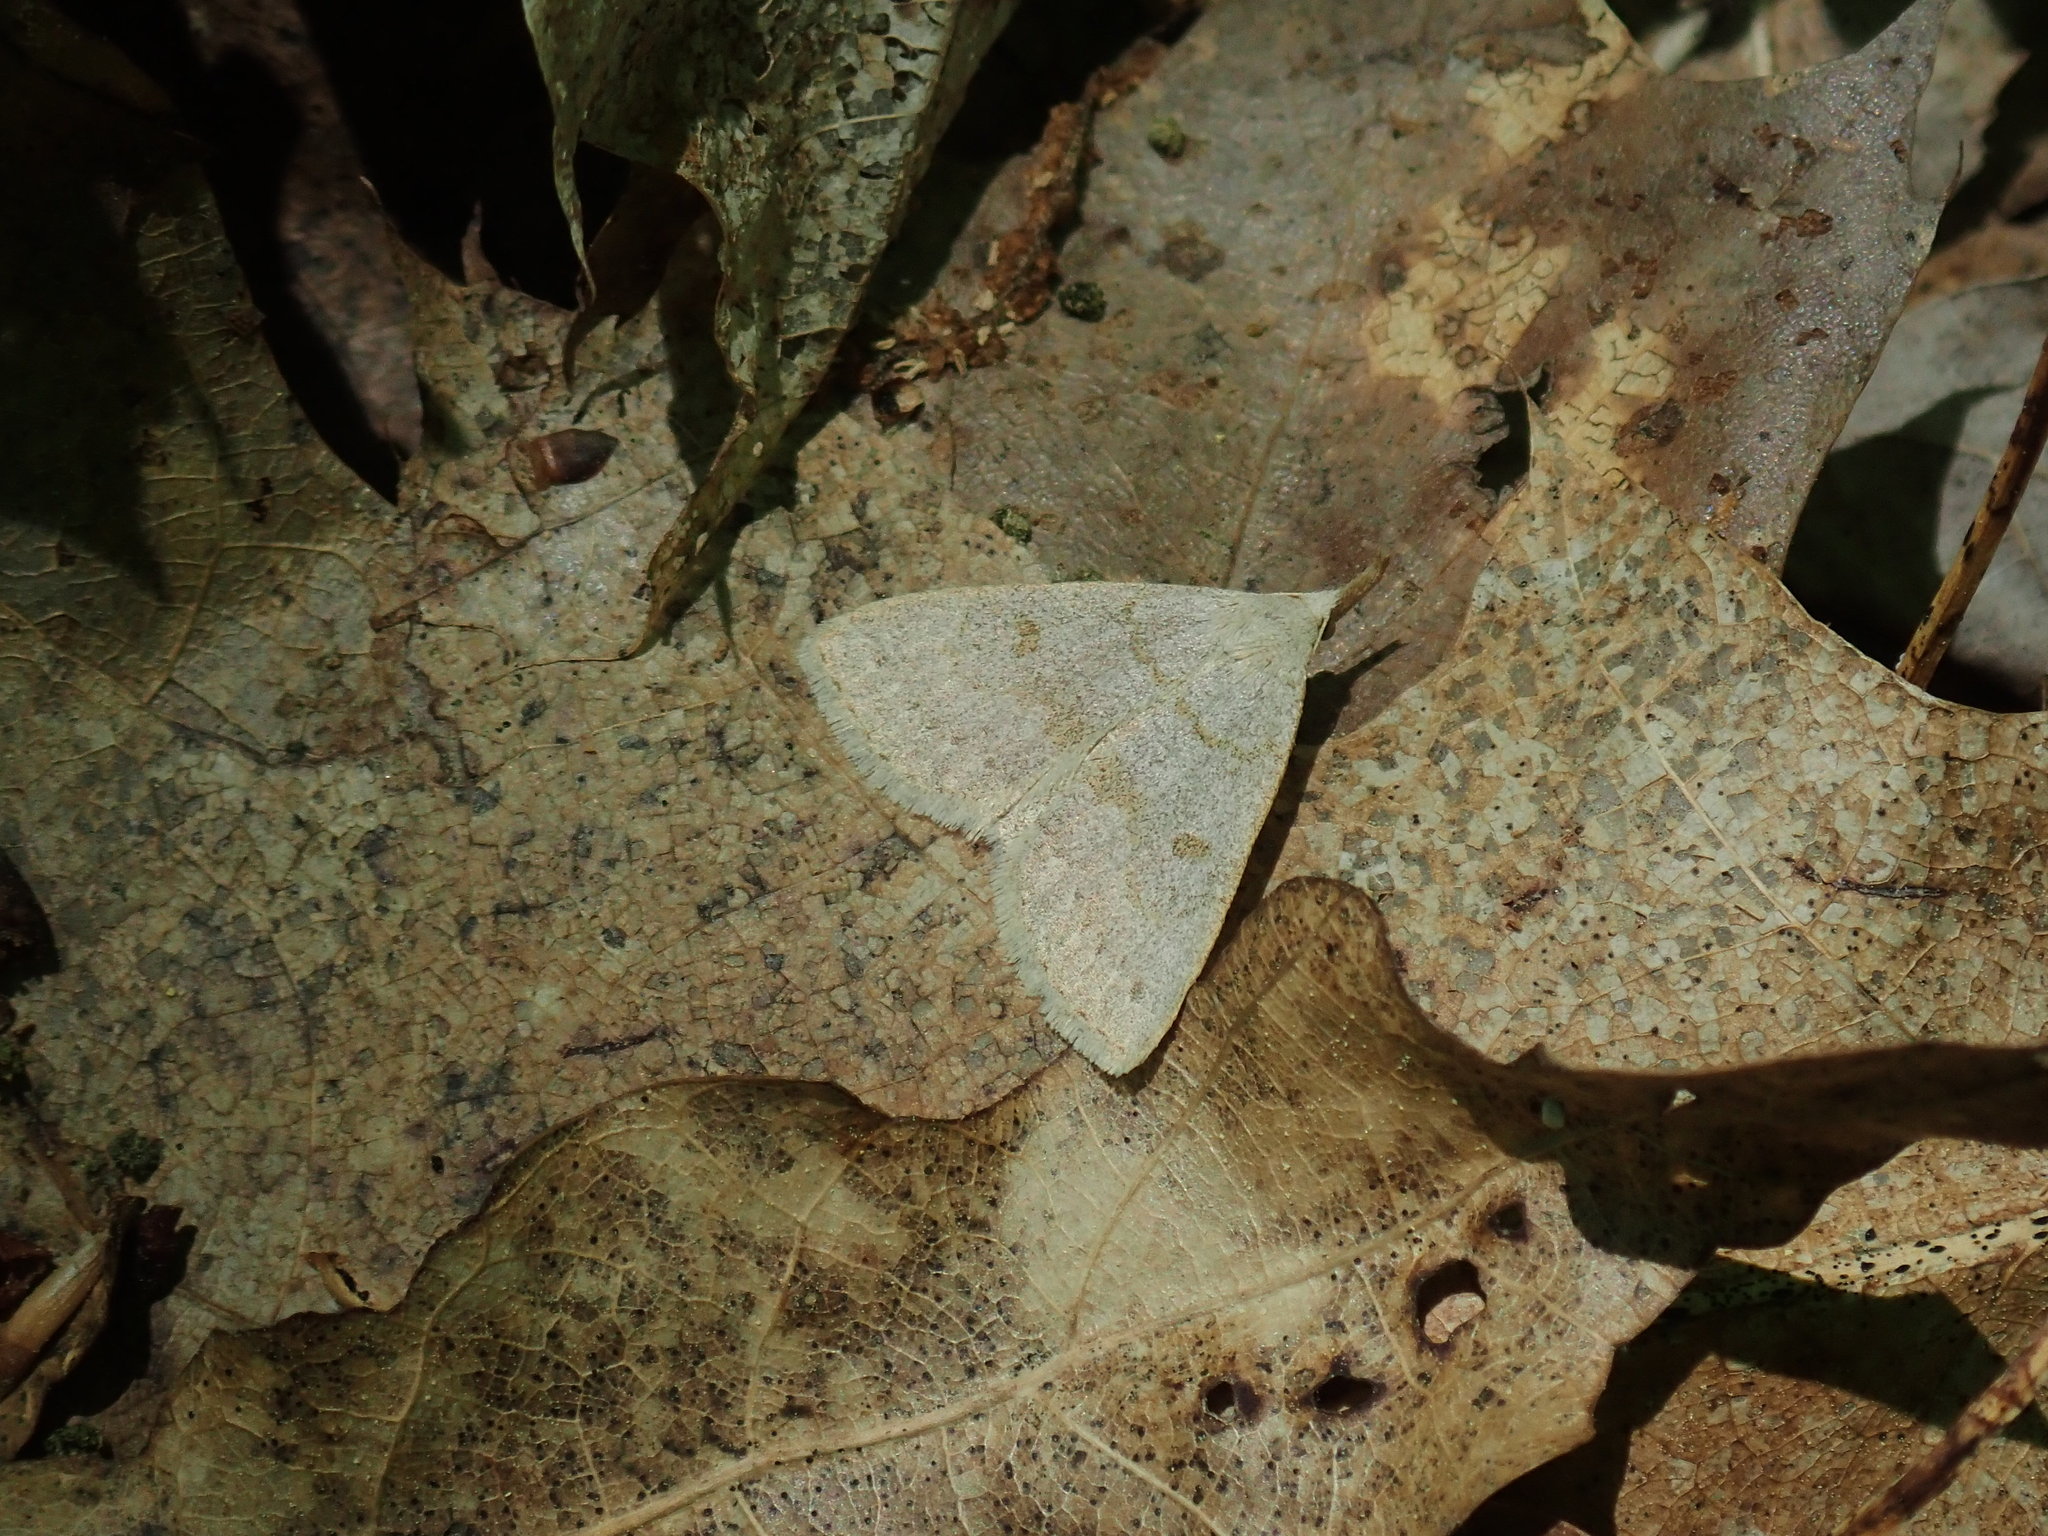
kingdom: Animalia
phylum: Arthropoda
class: Insecta
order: Lepidoptera
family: Erebidae
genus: Macrochilo
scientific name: Macrochilo morbidalis
